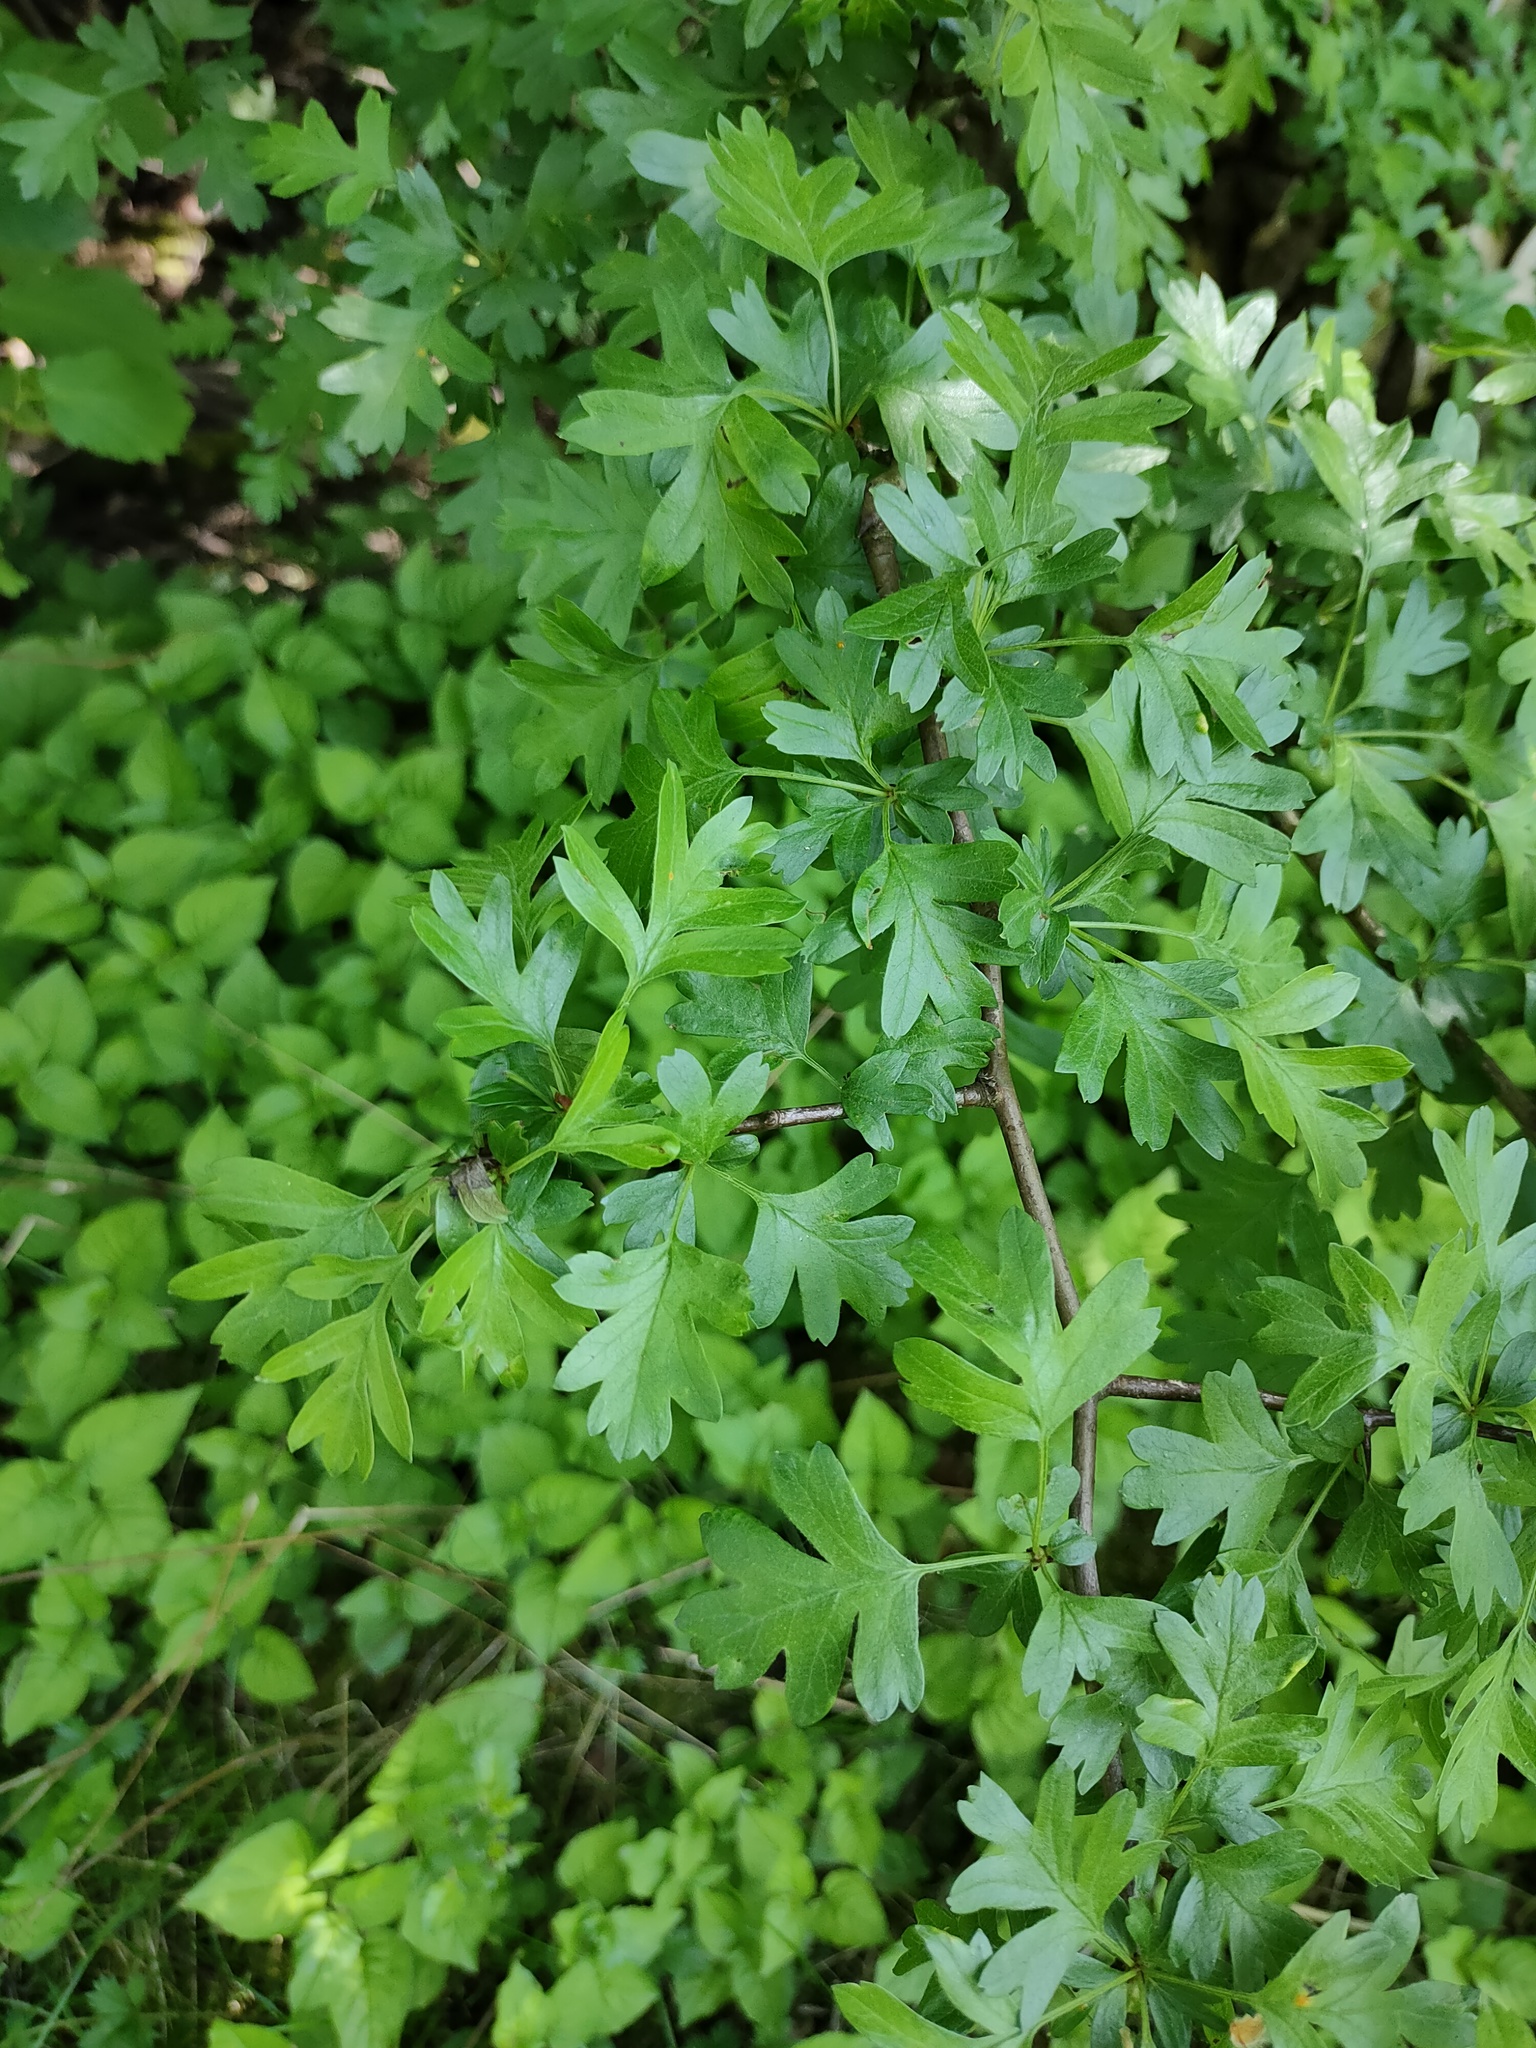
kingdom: Plantae
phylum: Tracheophyta
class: Magnoliopsida
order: Rosales
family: Rosaceae
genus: Crataegus
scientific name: Crataegus monogyna
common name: Hawthorn
